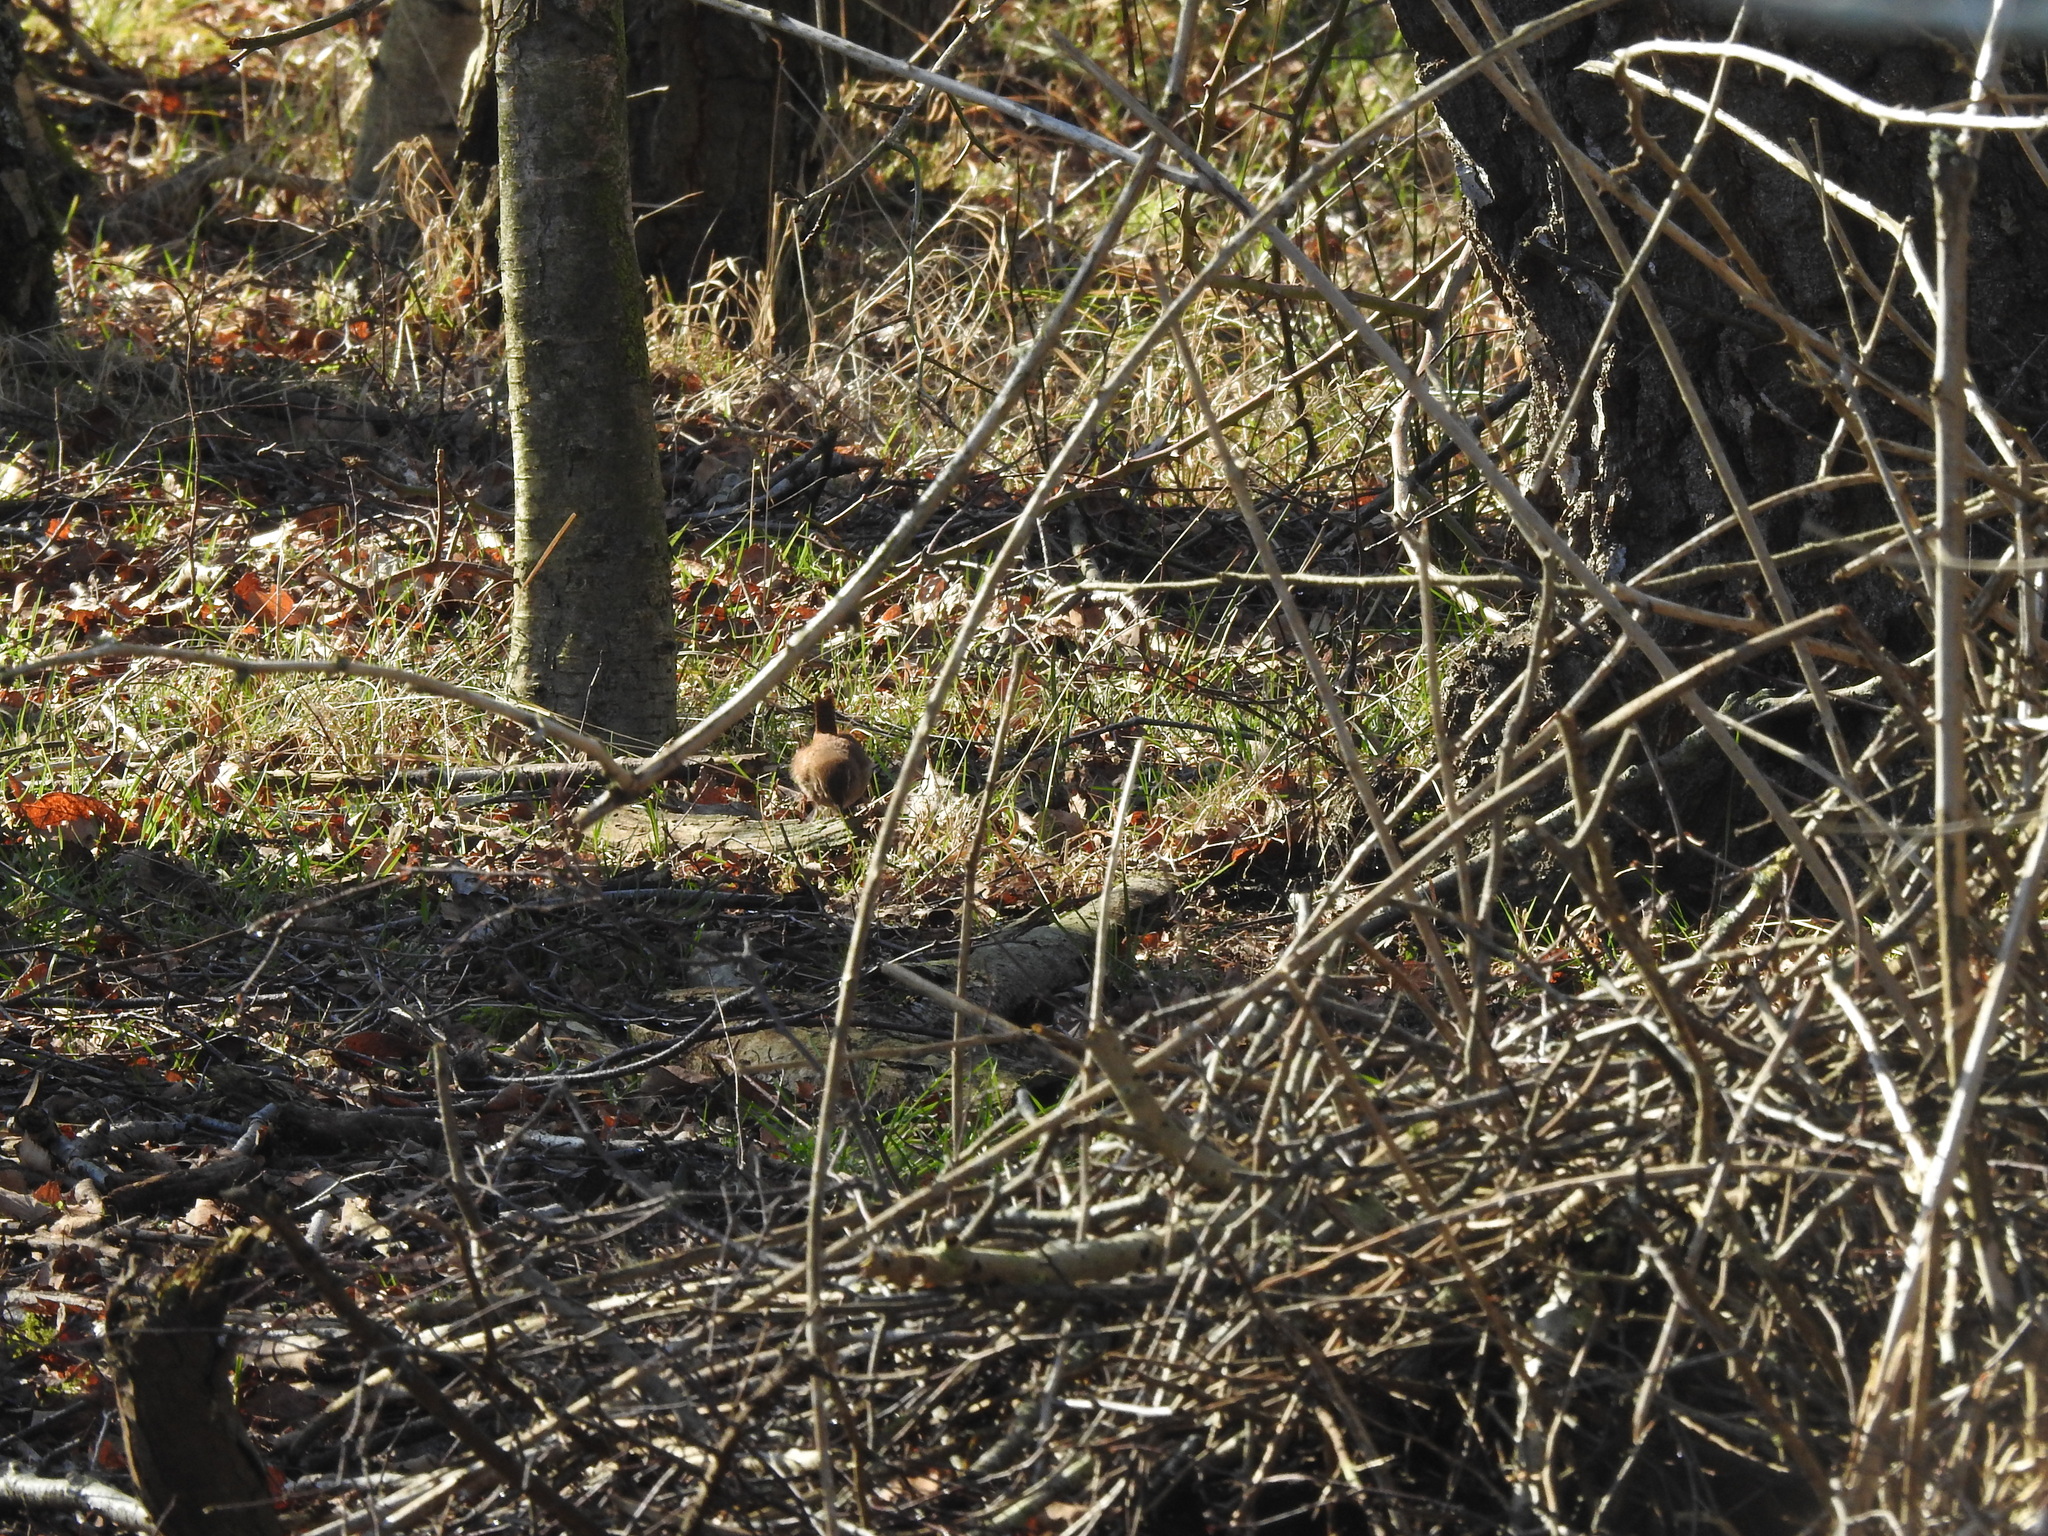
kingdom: Animalia
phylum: Chordata
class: Aves
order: Passeriformes
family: Troglodytidae
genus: Troglodytes
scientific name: Troglodytes troglodytes
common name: Eurasian wren
